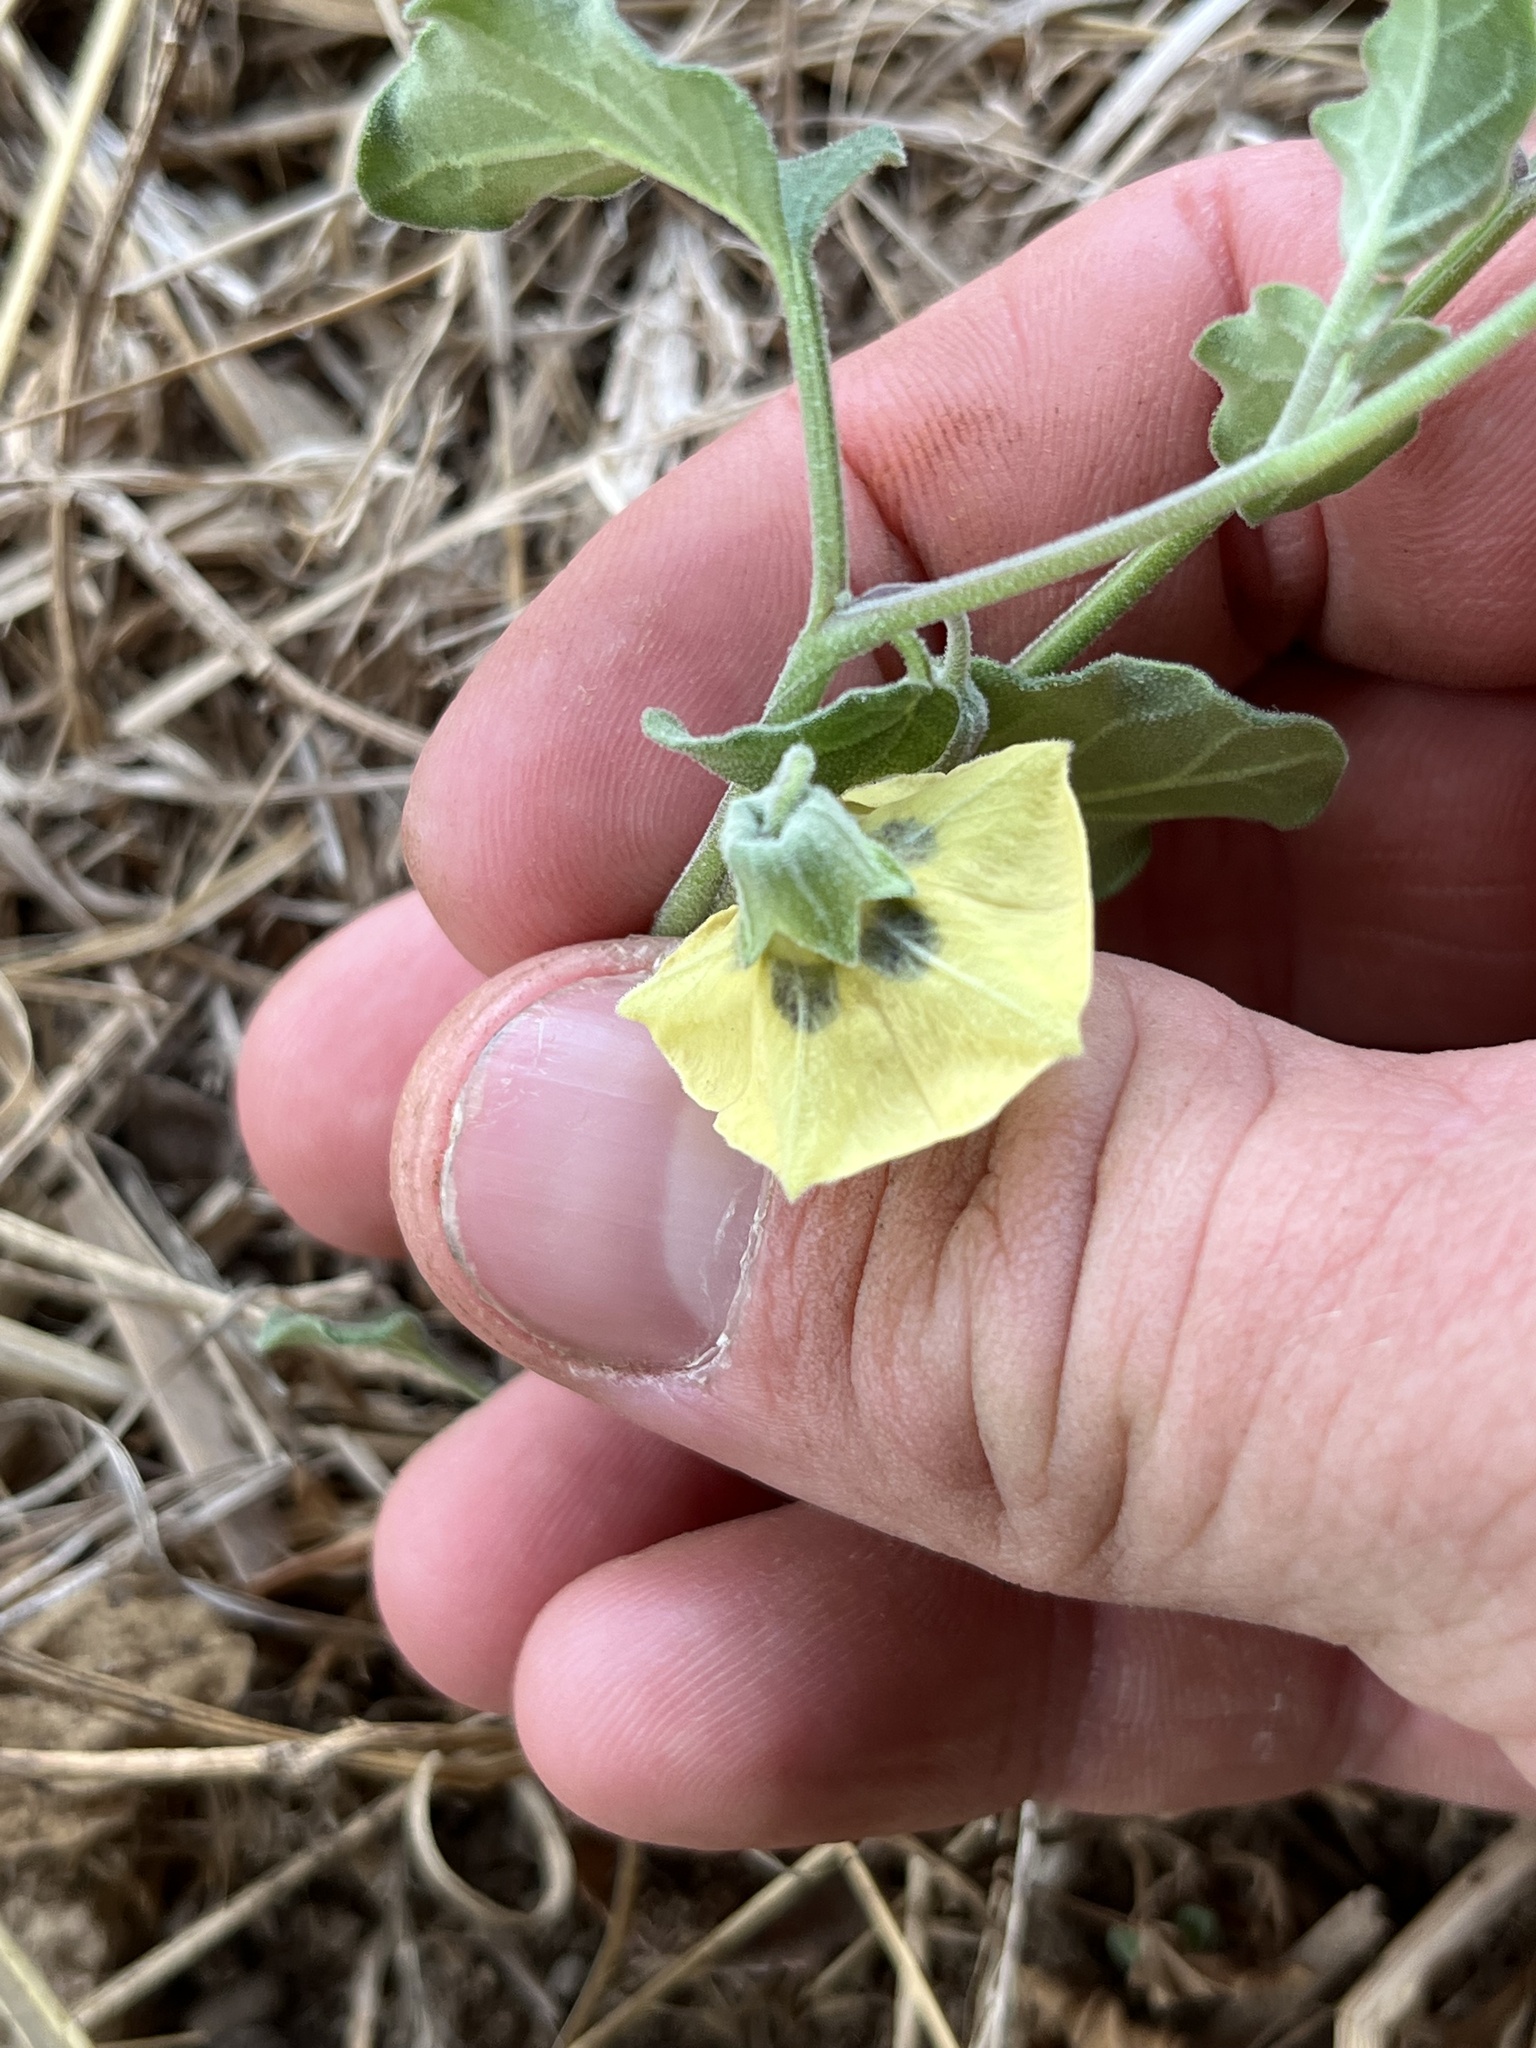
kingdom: Plantae
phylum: Tracheophyta
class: Magnoliopsida
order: Solanales
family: Solanaceae
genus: Physalis
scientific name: Physalis cinerascens
